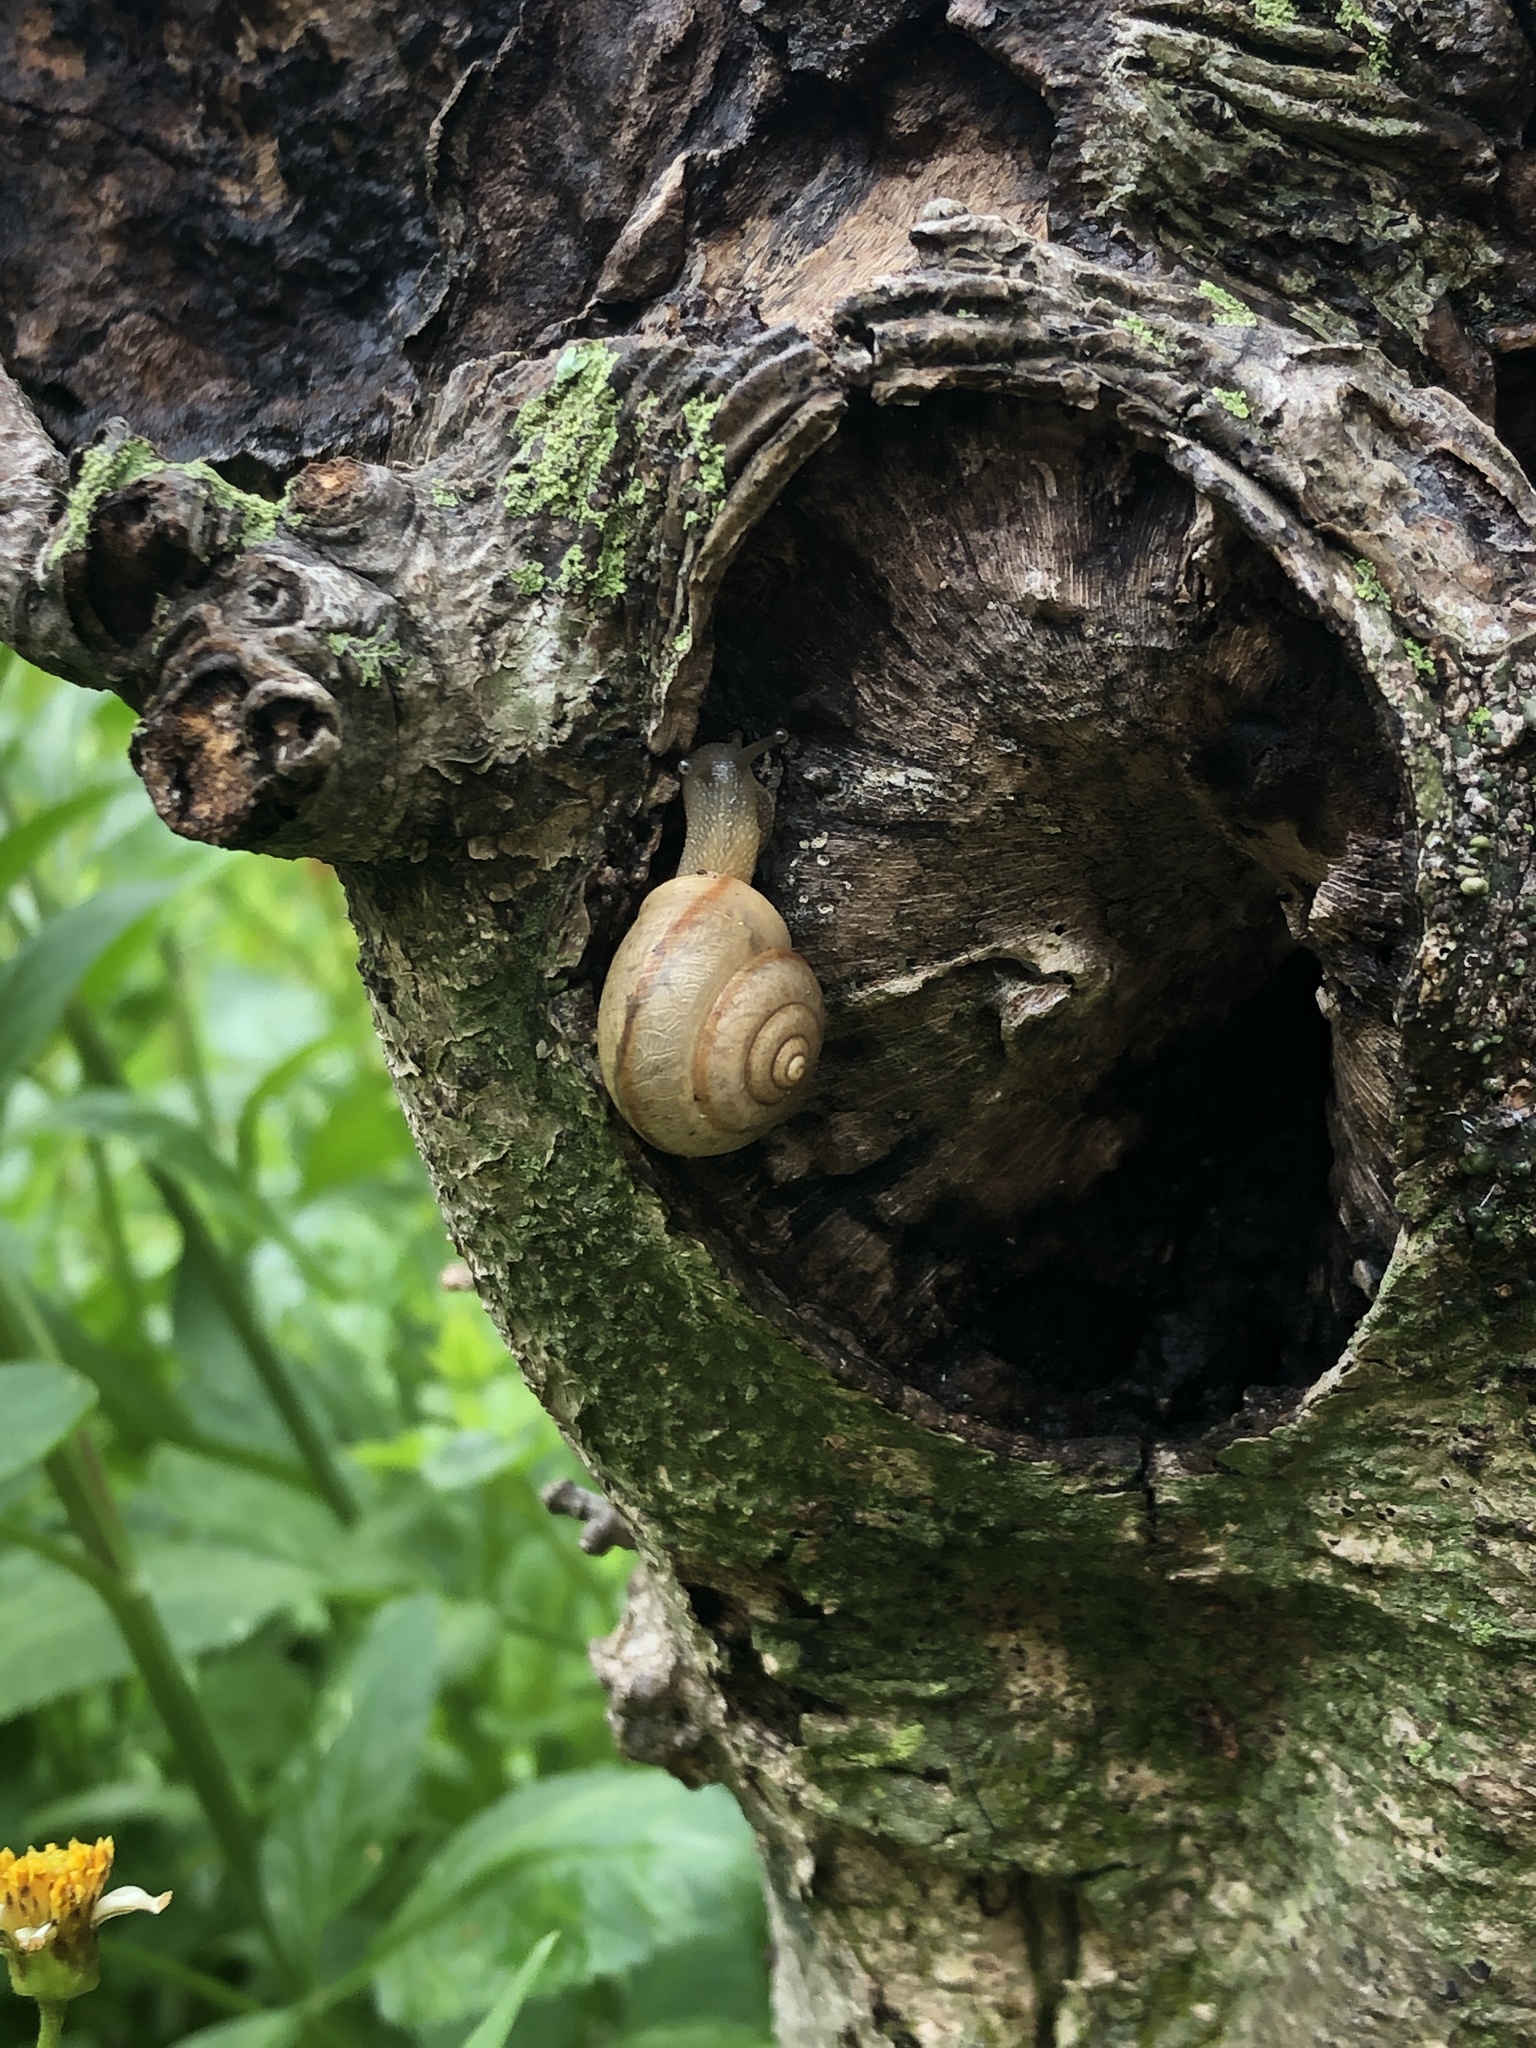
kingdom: Animalia
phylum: Mollusca
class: Gastropoda
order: Stylommatophora
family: Camaenidae
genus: Bradybaena
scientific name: Bradybaena similaris
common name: Asian trampsnail
